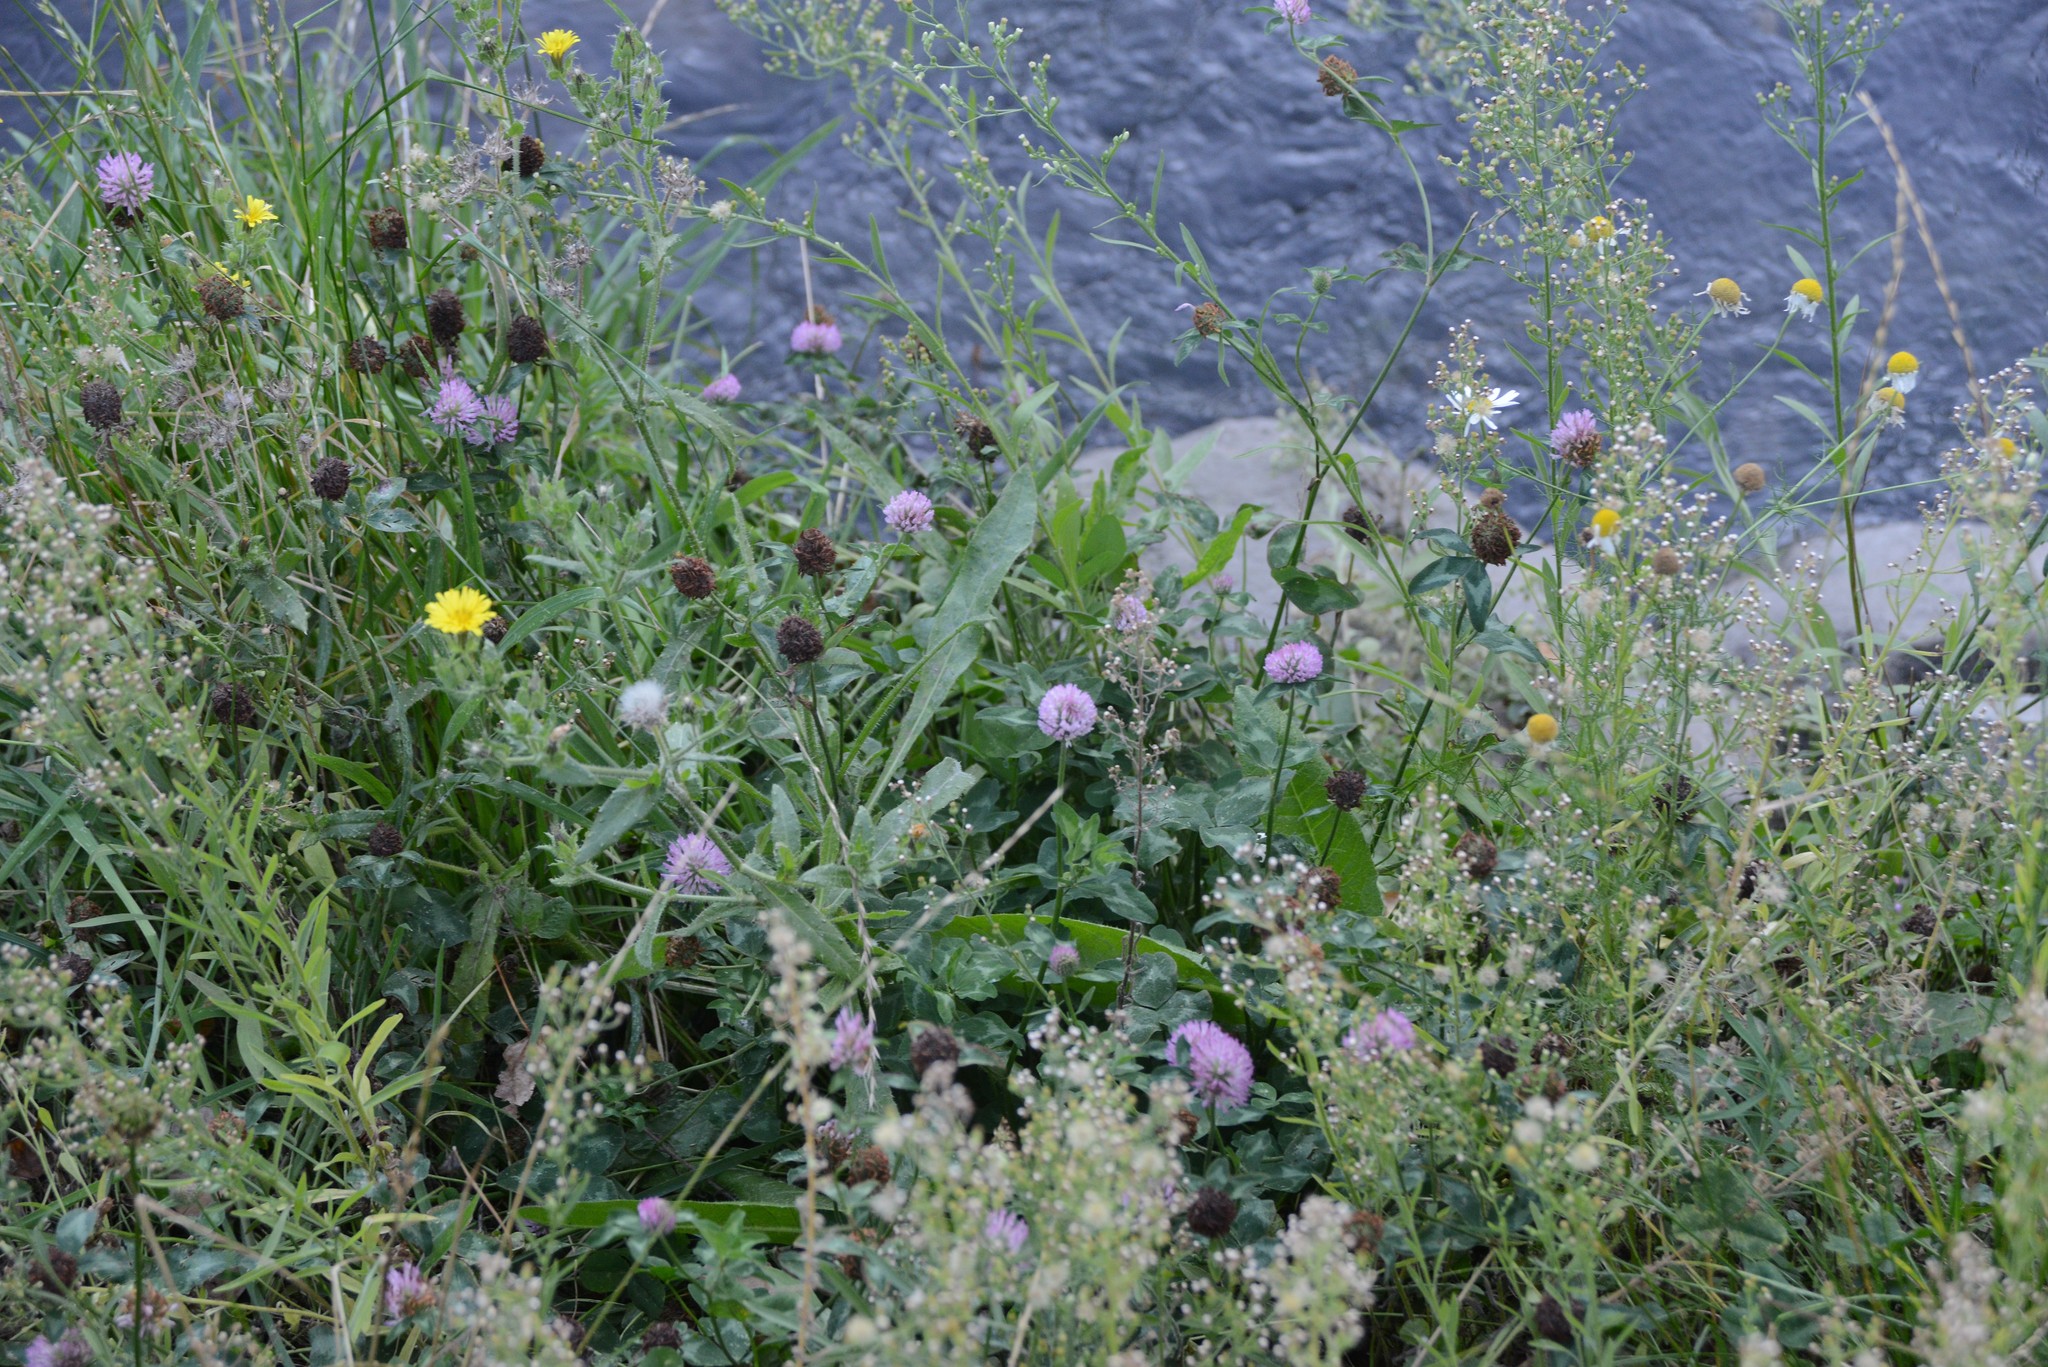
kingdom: Plantae
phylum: Tracheophyta
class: Magnoliopsida
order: Fabales
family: Fabaceae
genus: Trifolium
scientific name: Trifolium pratense
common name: Red clover
